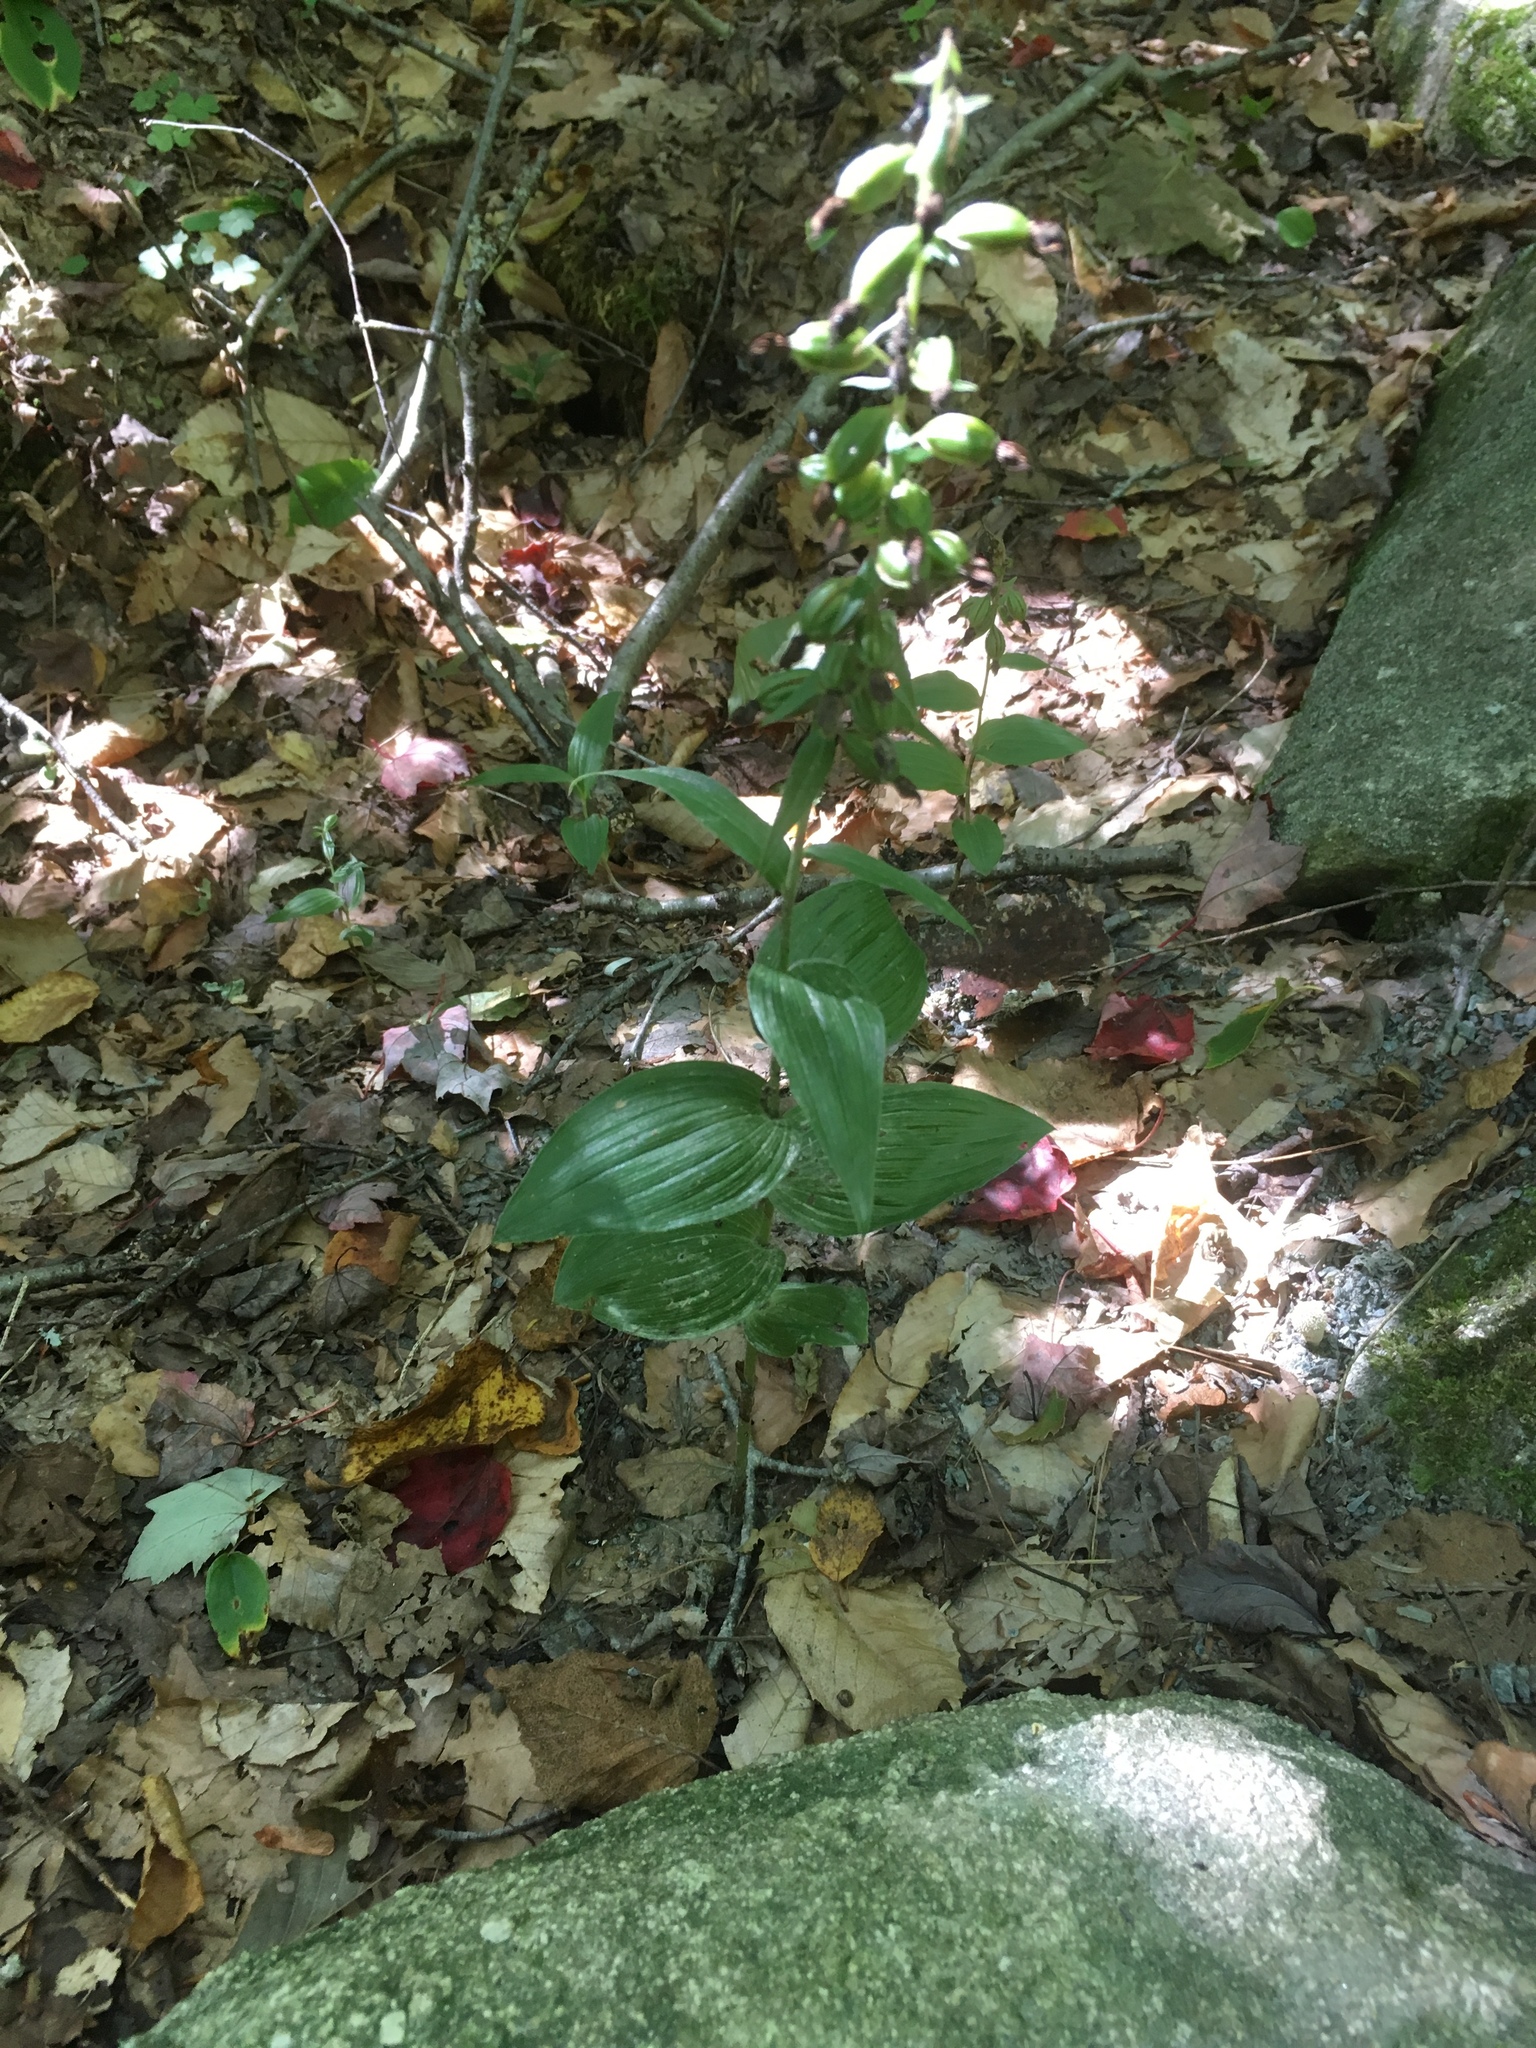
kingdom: Plantae
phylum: Tracheophyta
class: Liliopsida
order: Asparagales
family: Orchidaceae
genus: Epipactis
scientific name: Epipactis helleborine
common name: Broad-leaved helleborine
